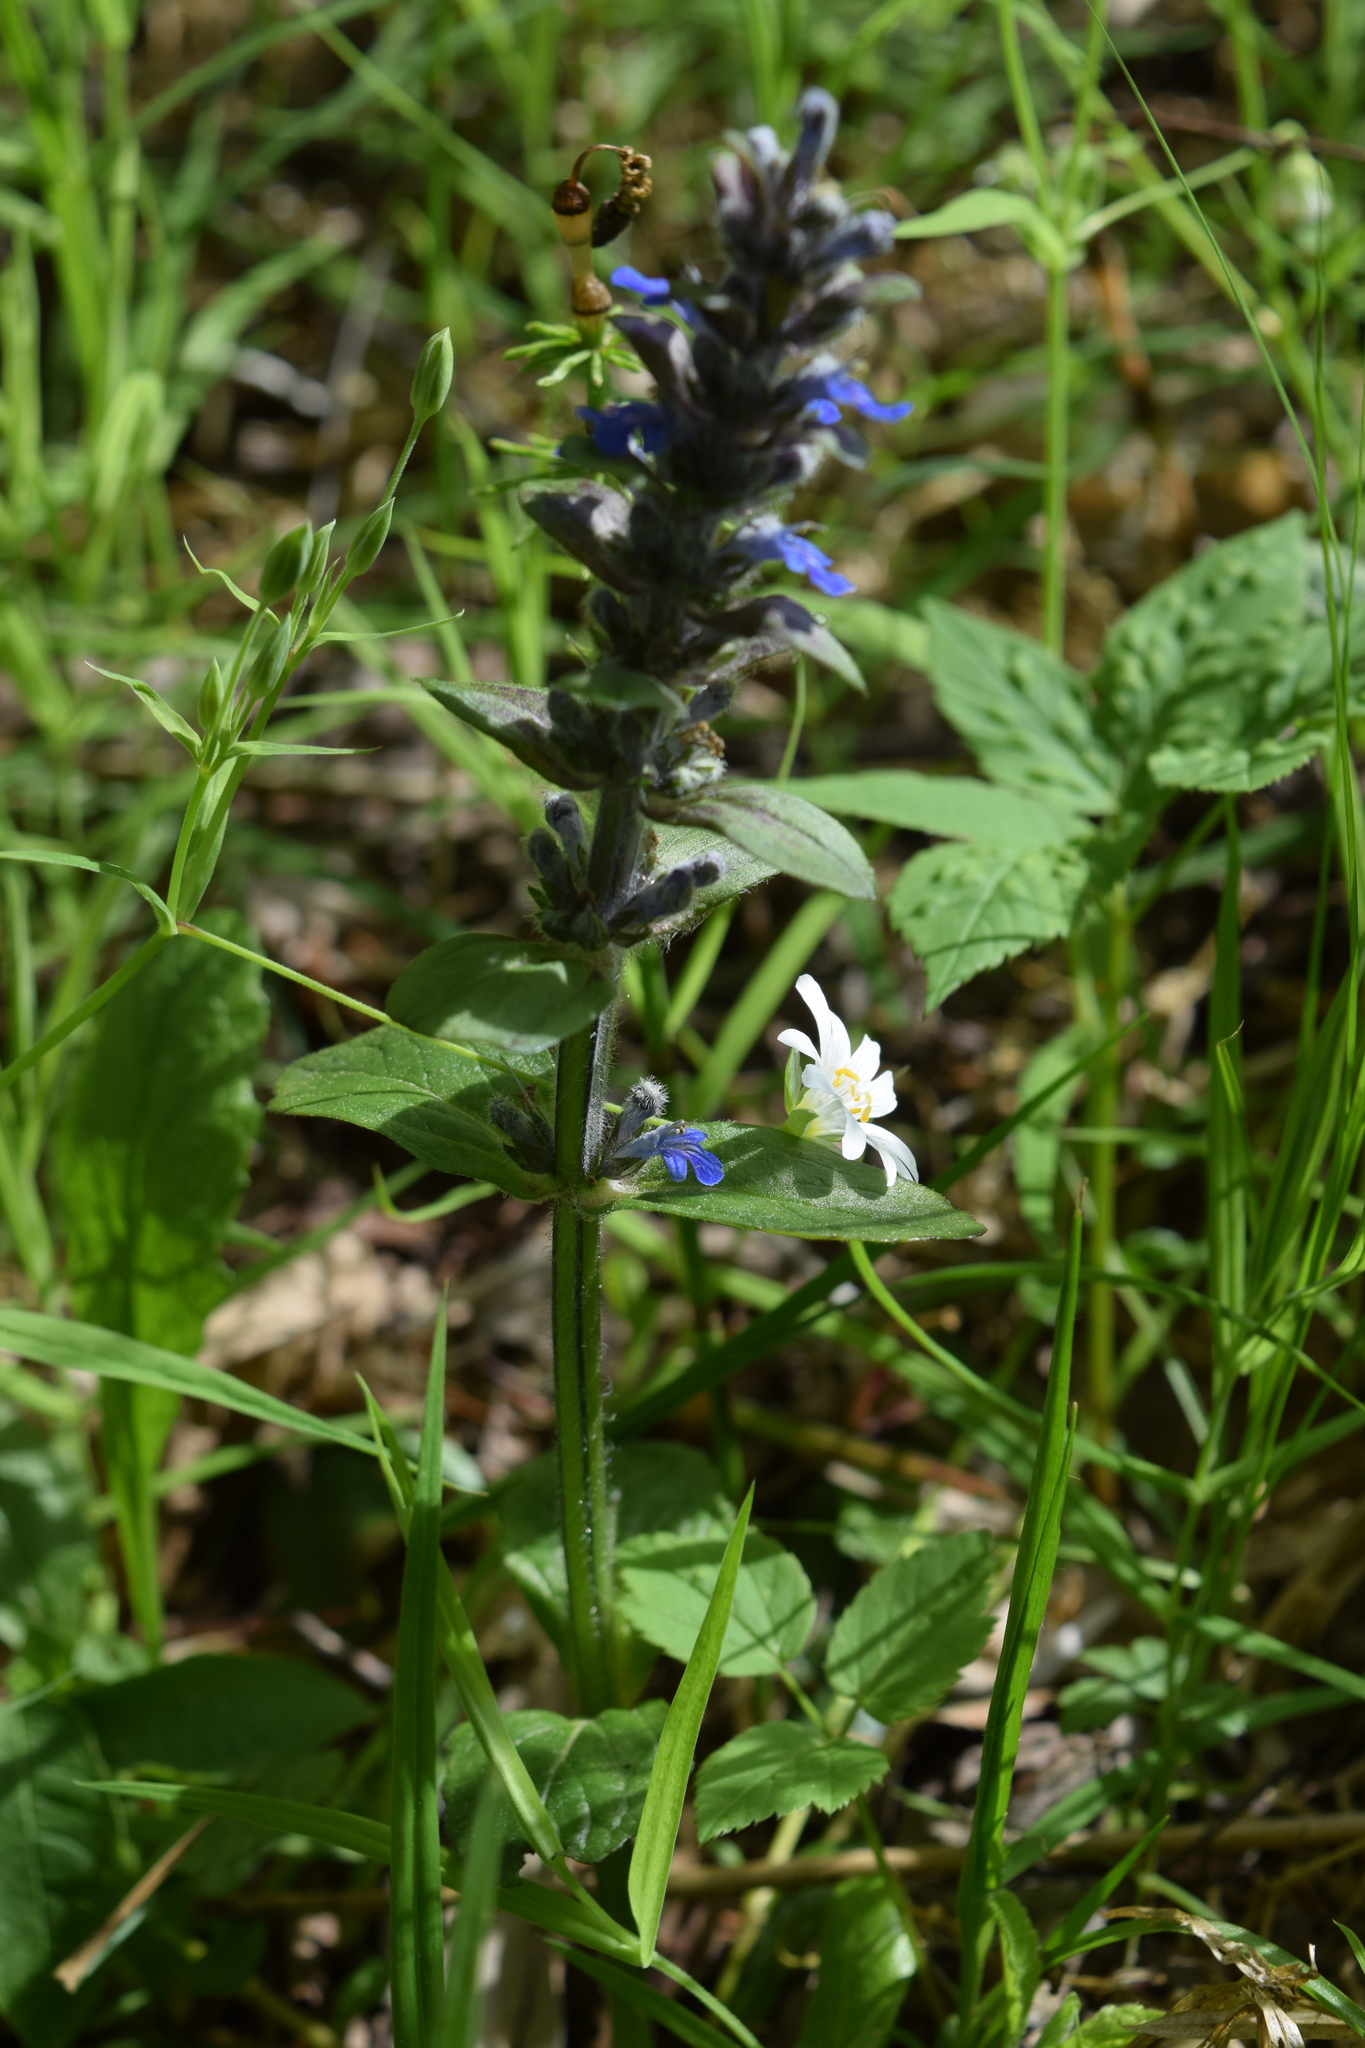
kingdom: Plantae
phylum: Tracheophyta
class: Magnoliopsida
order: Lamiales
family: Lamiaceae
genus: Ajuga
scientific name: Ajuga reptans
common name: Bugle
